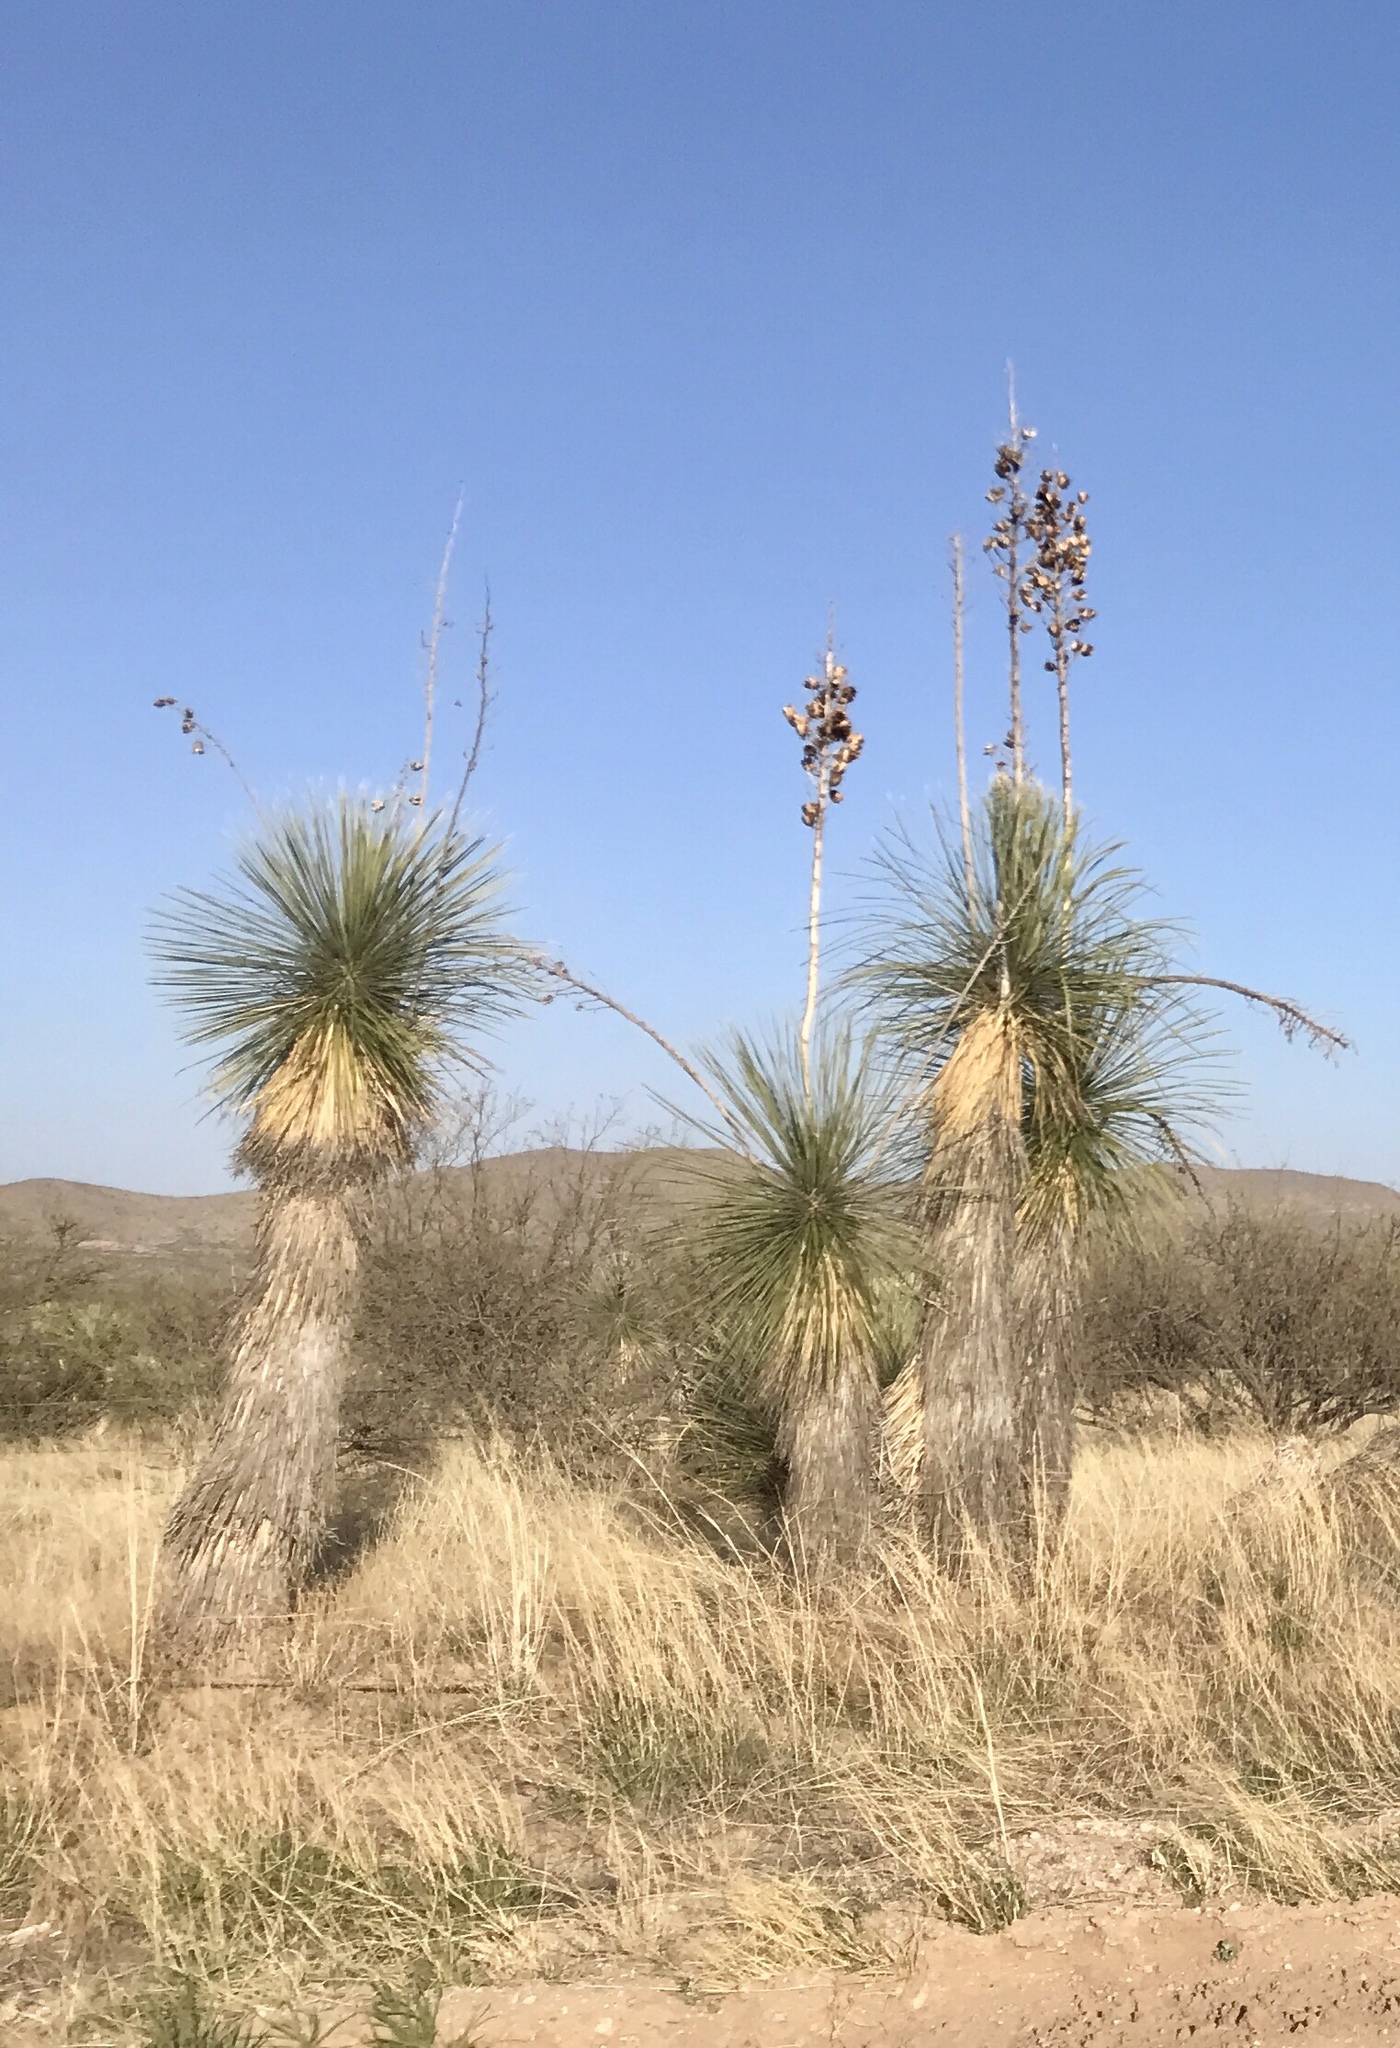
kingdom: Plantae
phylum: Tracheophyta
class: Liliopsida
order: Asparagales
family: Asparagaceae
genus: Yucca
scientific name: Yucca elata
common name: Palmella
